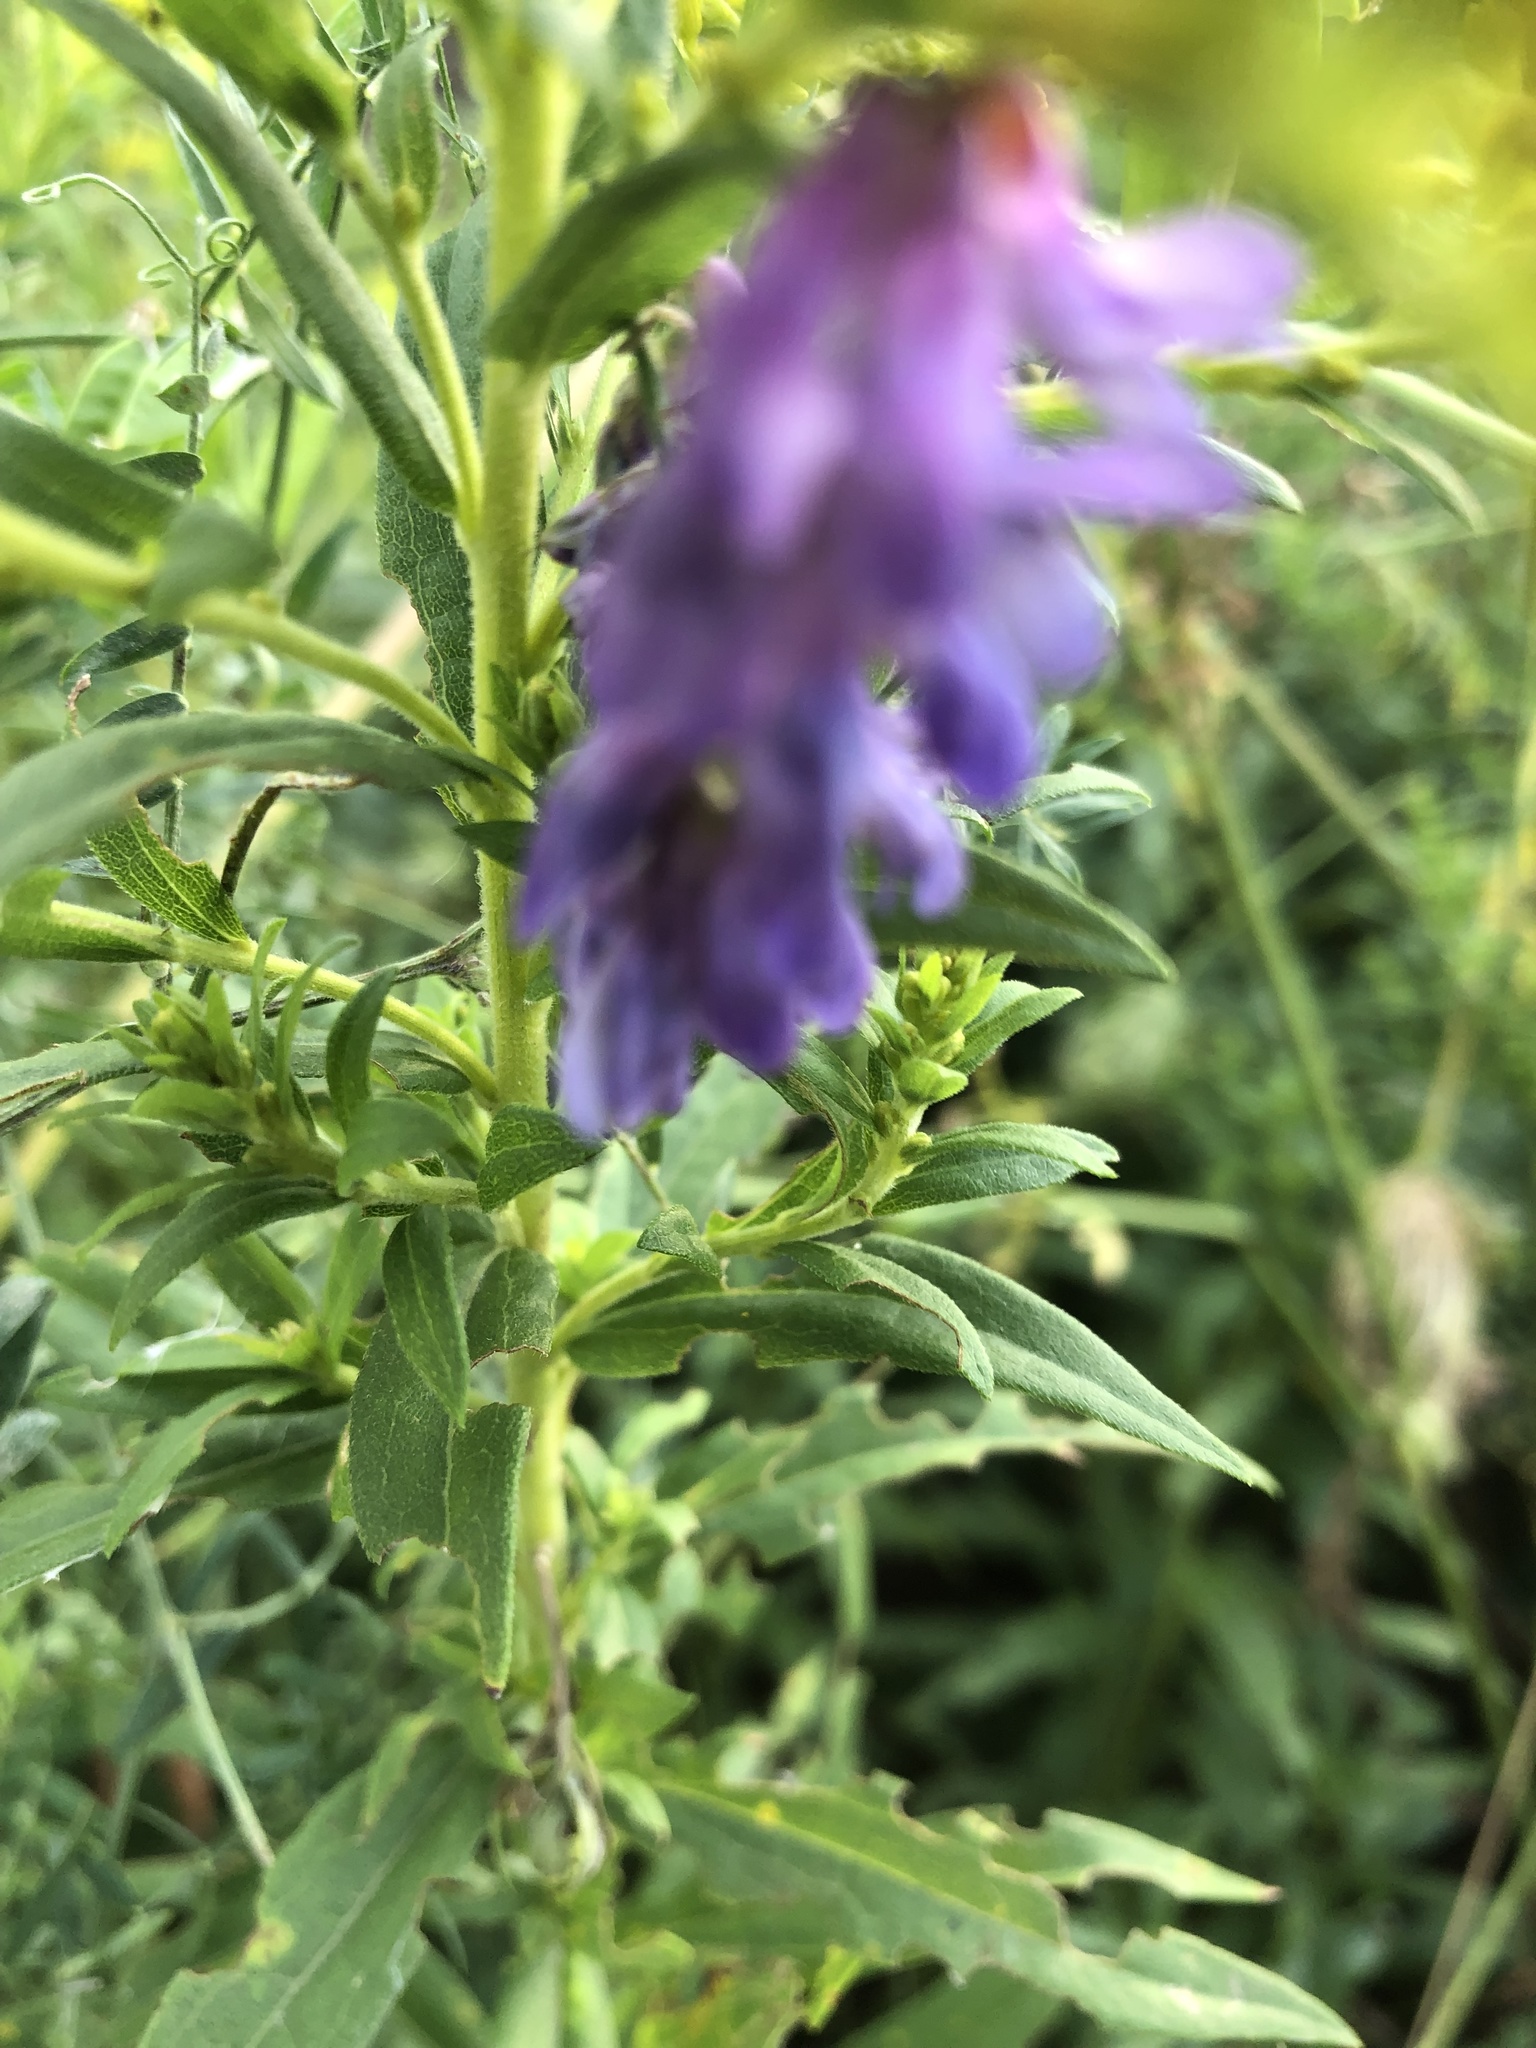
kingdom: Plantae
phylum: Tracheophyta
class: Magnoliopsida
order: Fabales
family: Fabaceae
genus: Vicia
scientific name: Vicia cracca
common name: Bird vetch
